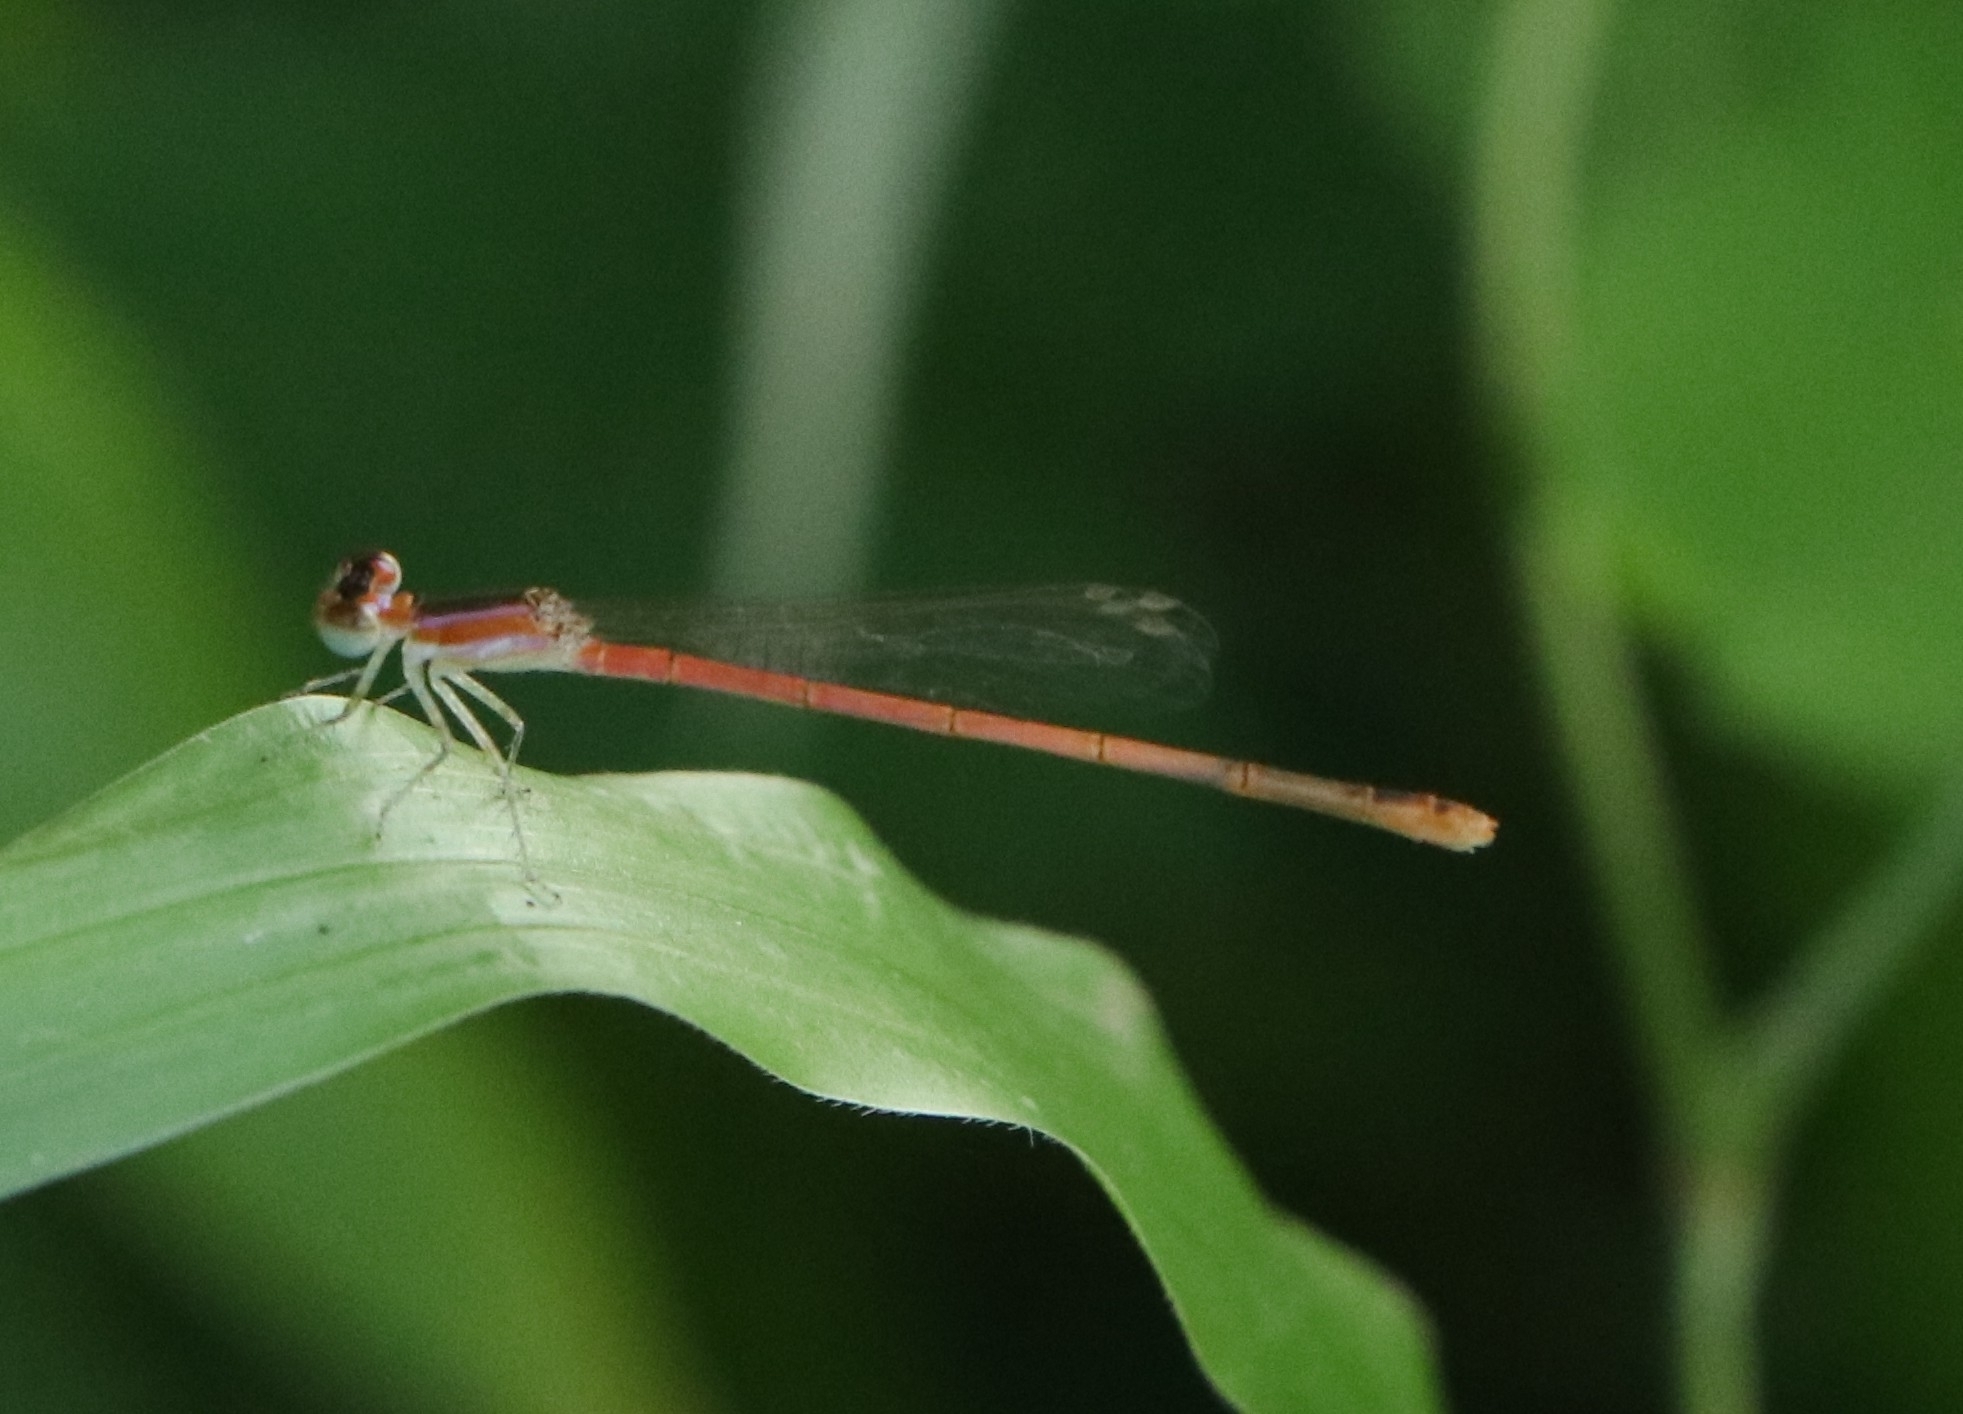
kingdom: Animalia
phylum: Arthropoda
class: Insecta
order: Odonata
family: Coenagrionidae
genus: Agriocnemis
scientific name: Agriocnemis pygmaea
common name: Pygmy wisp
